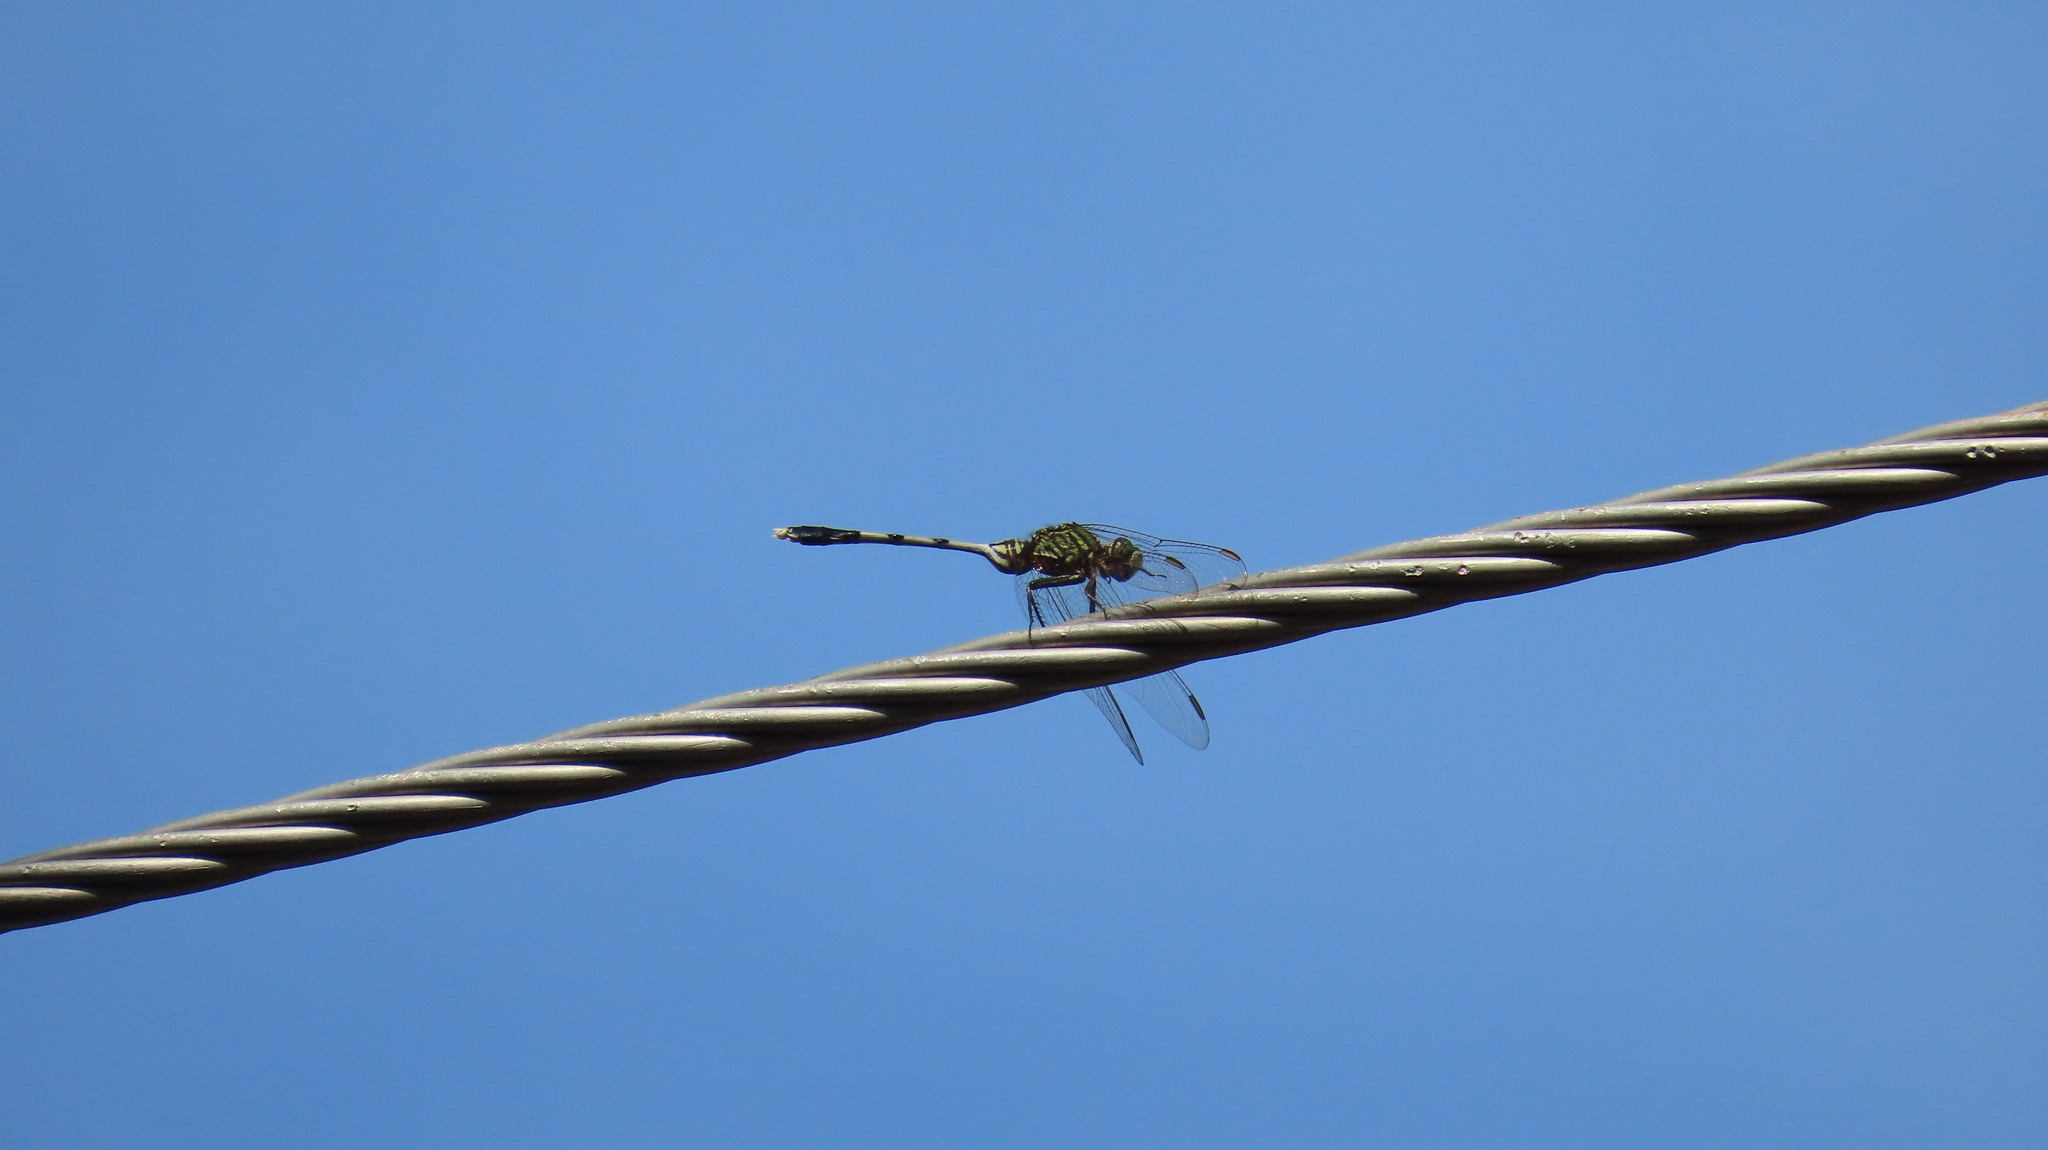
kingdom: Animalia
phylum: Arthropoda
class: Insecta
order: Odonata
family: Libellulidae
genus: Orthetrum
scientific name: Orthetrum sabina
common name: Slender skimmer
